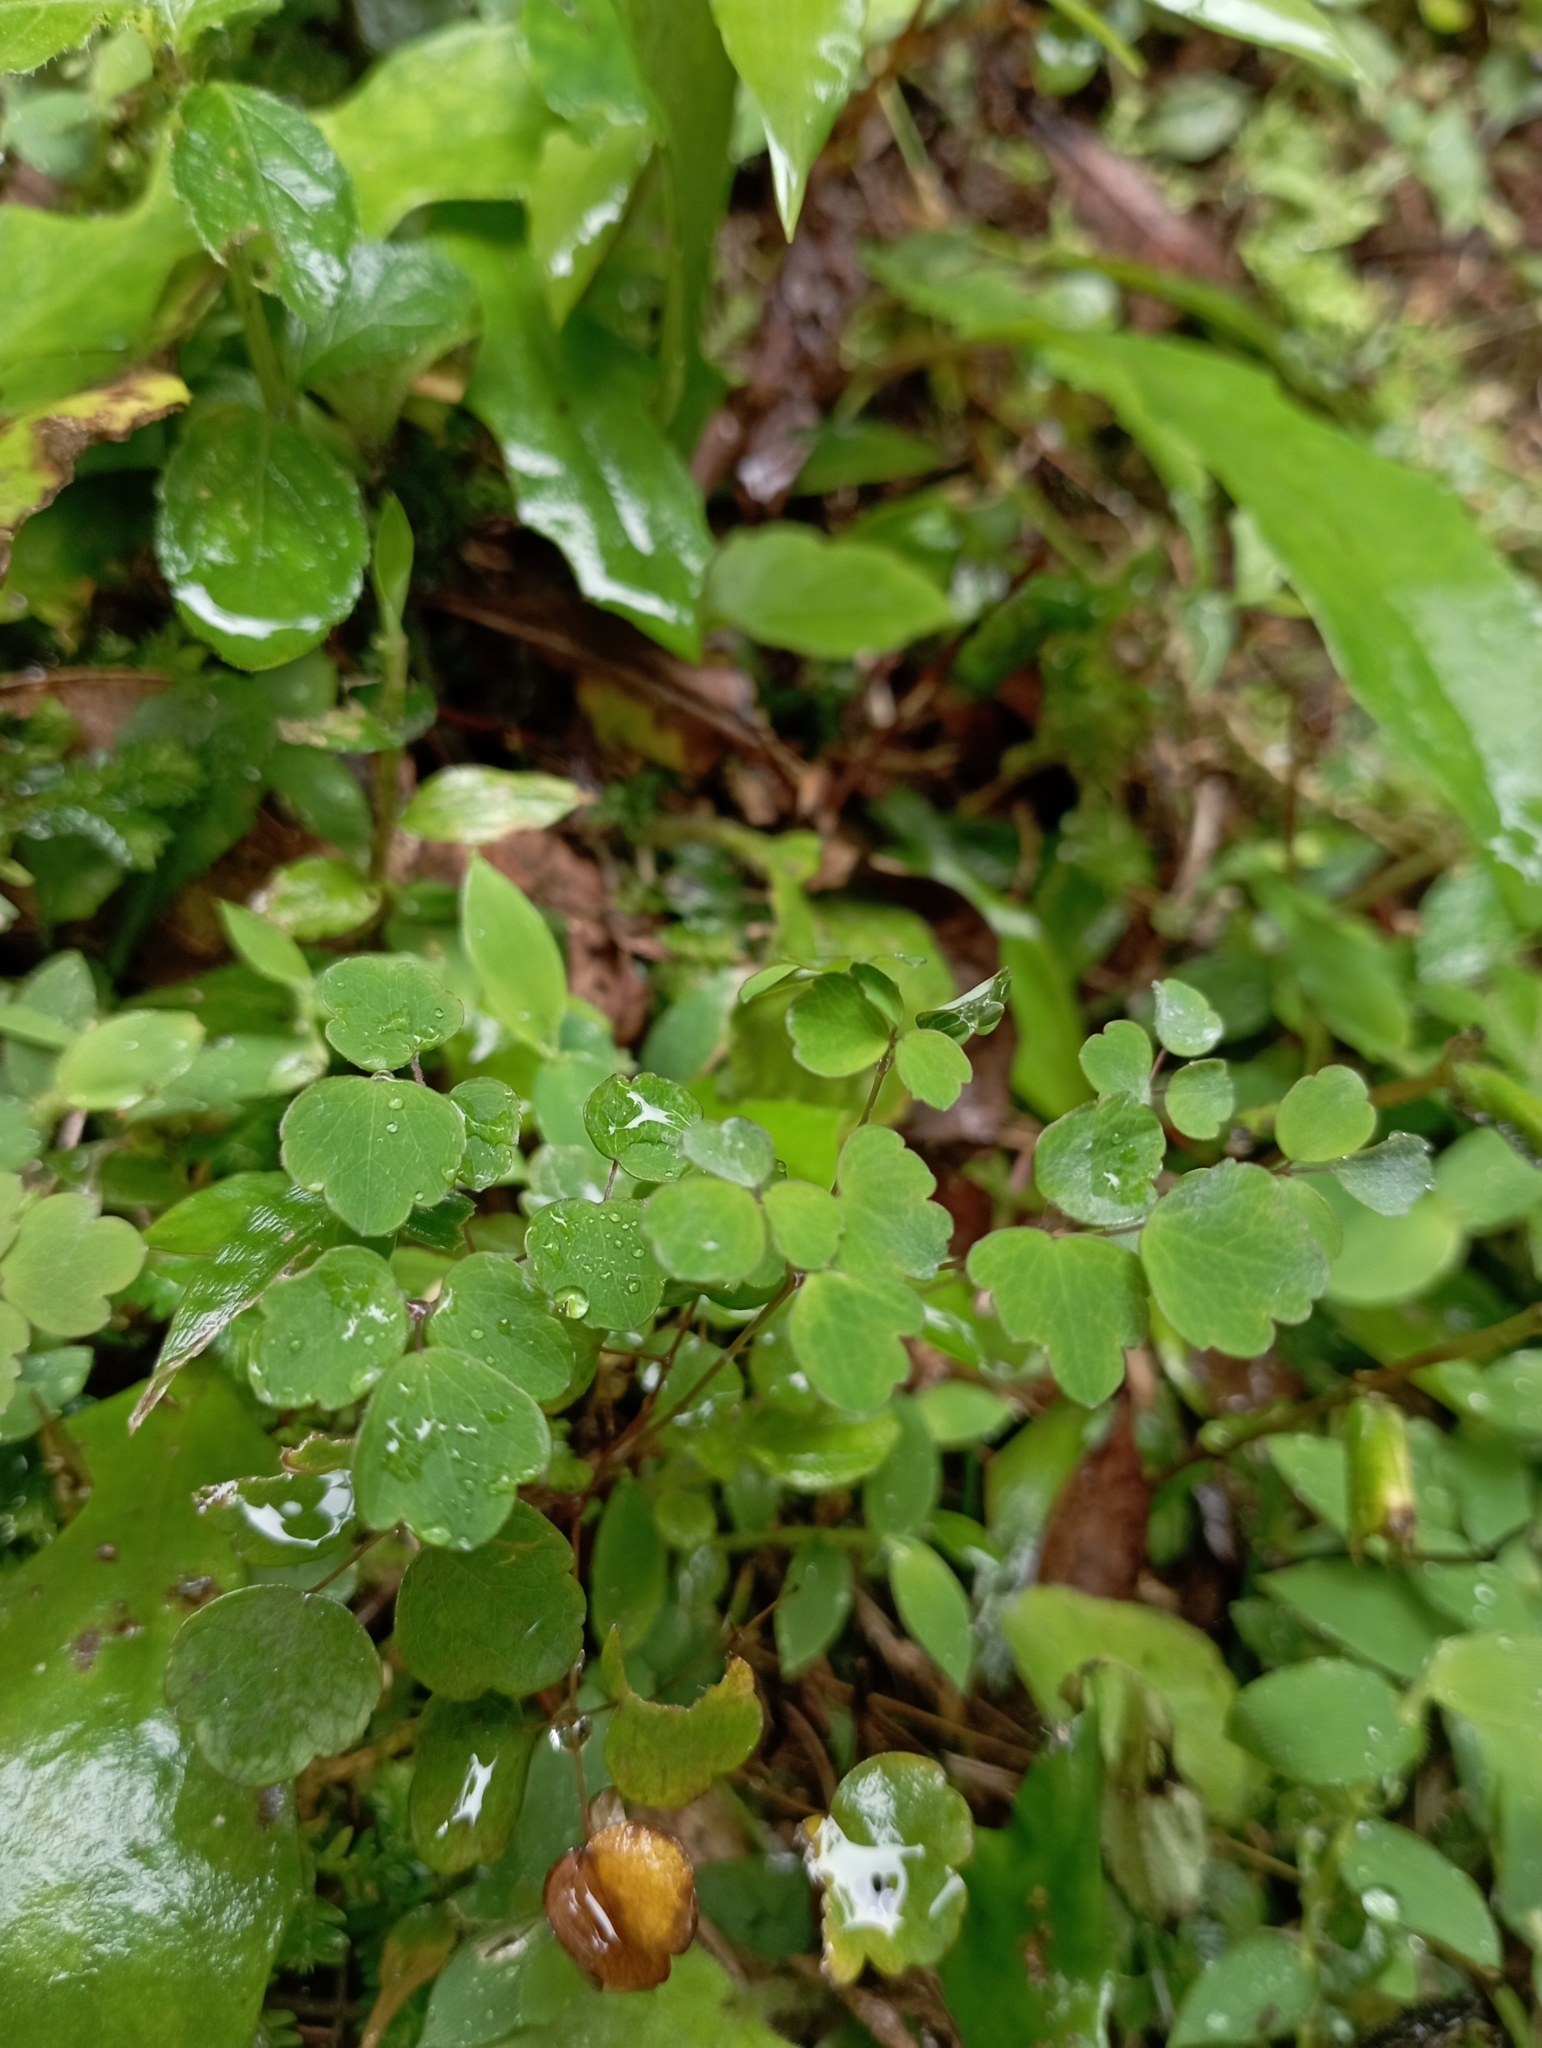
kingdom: Plantae
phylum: Tracheophyta
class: Magnoliopsida
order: Ranunculales
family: Ranunculaceae
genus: Thalictrum
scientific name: Thalictrum urbaini
